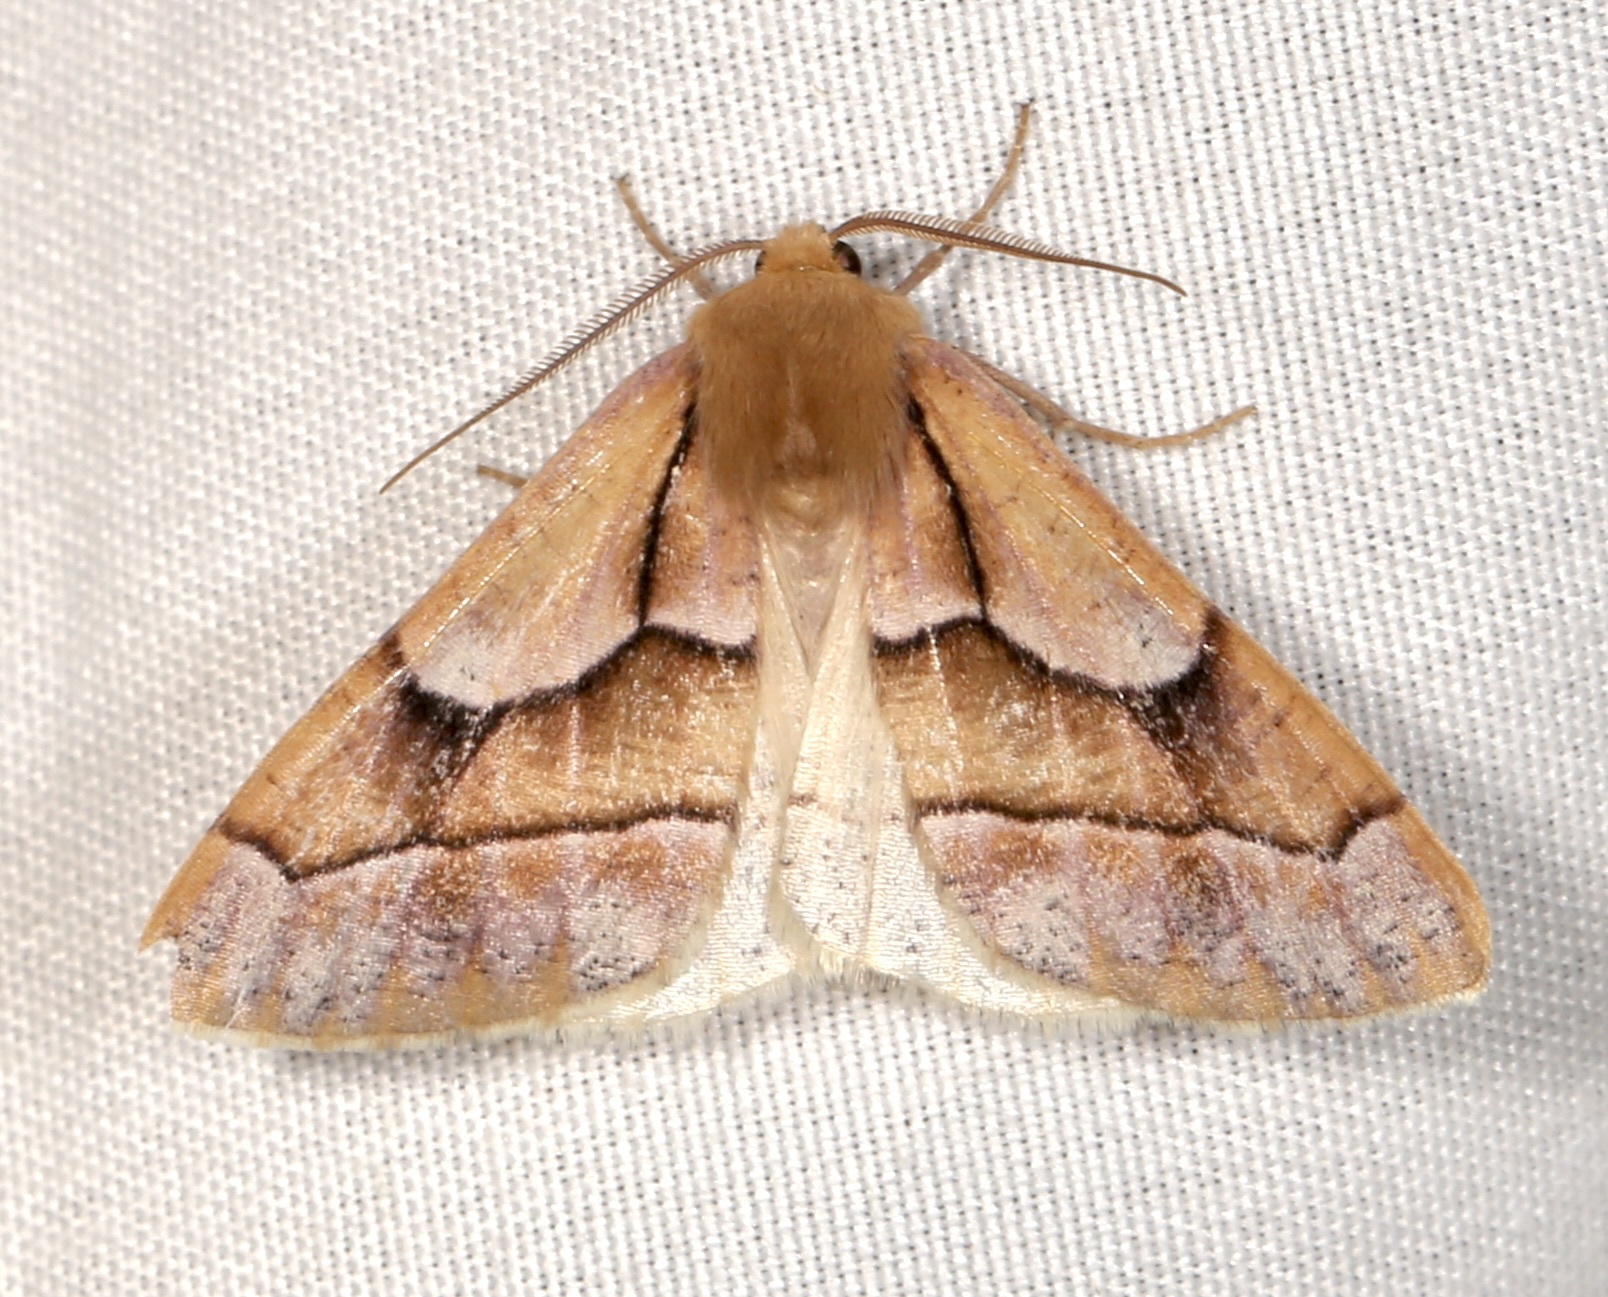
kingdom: Animalia
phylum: Arthropoda
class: Insecta
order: Lepidoptera
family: Geometridae
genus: Snowia
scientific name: Snowia montanaria
